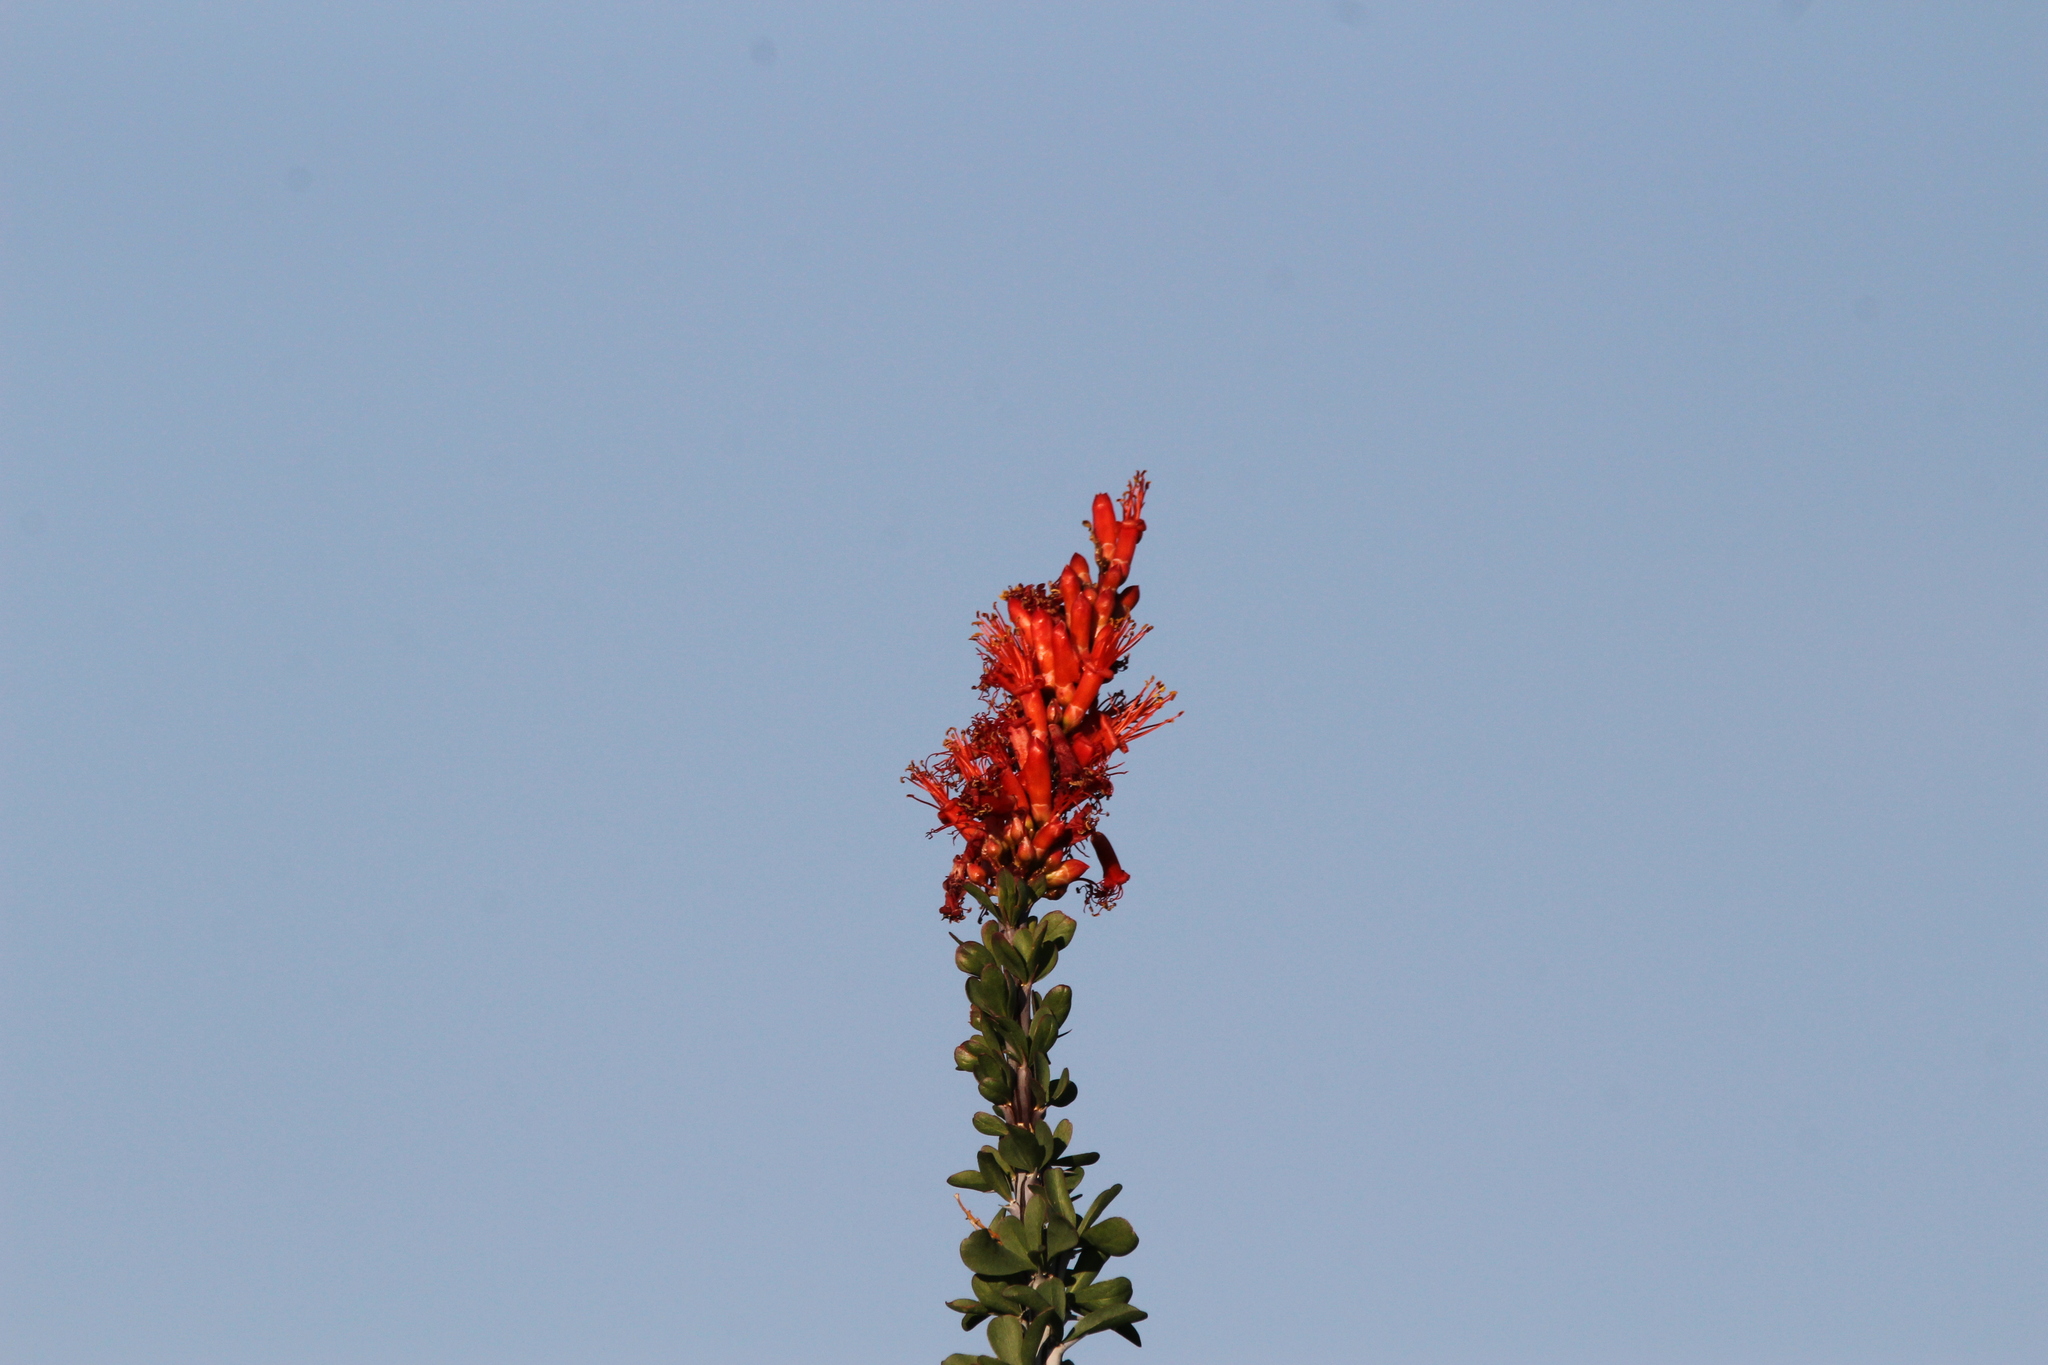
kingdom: Plantae
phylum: Tracheophyta
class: Magnoliopsida
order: Ericales
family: Fouquieriaceae
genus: Fouquieria
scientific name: Fouquieria splendens
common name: Vine-cactus
